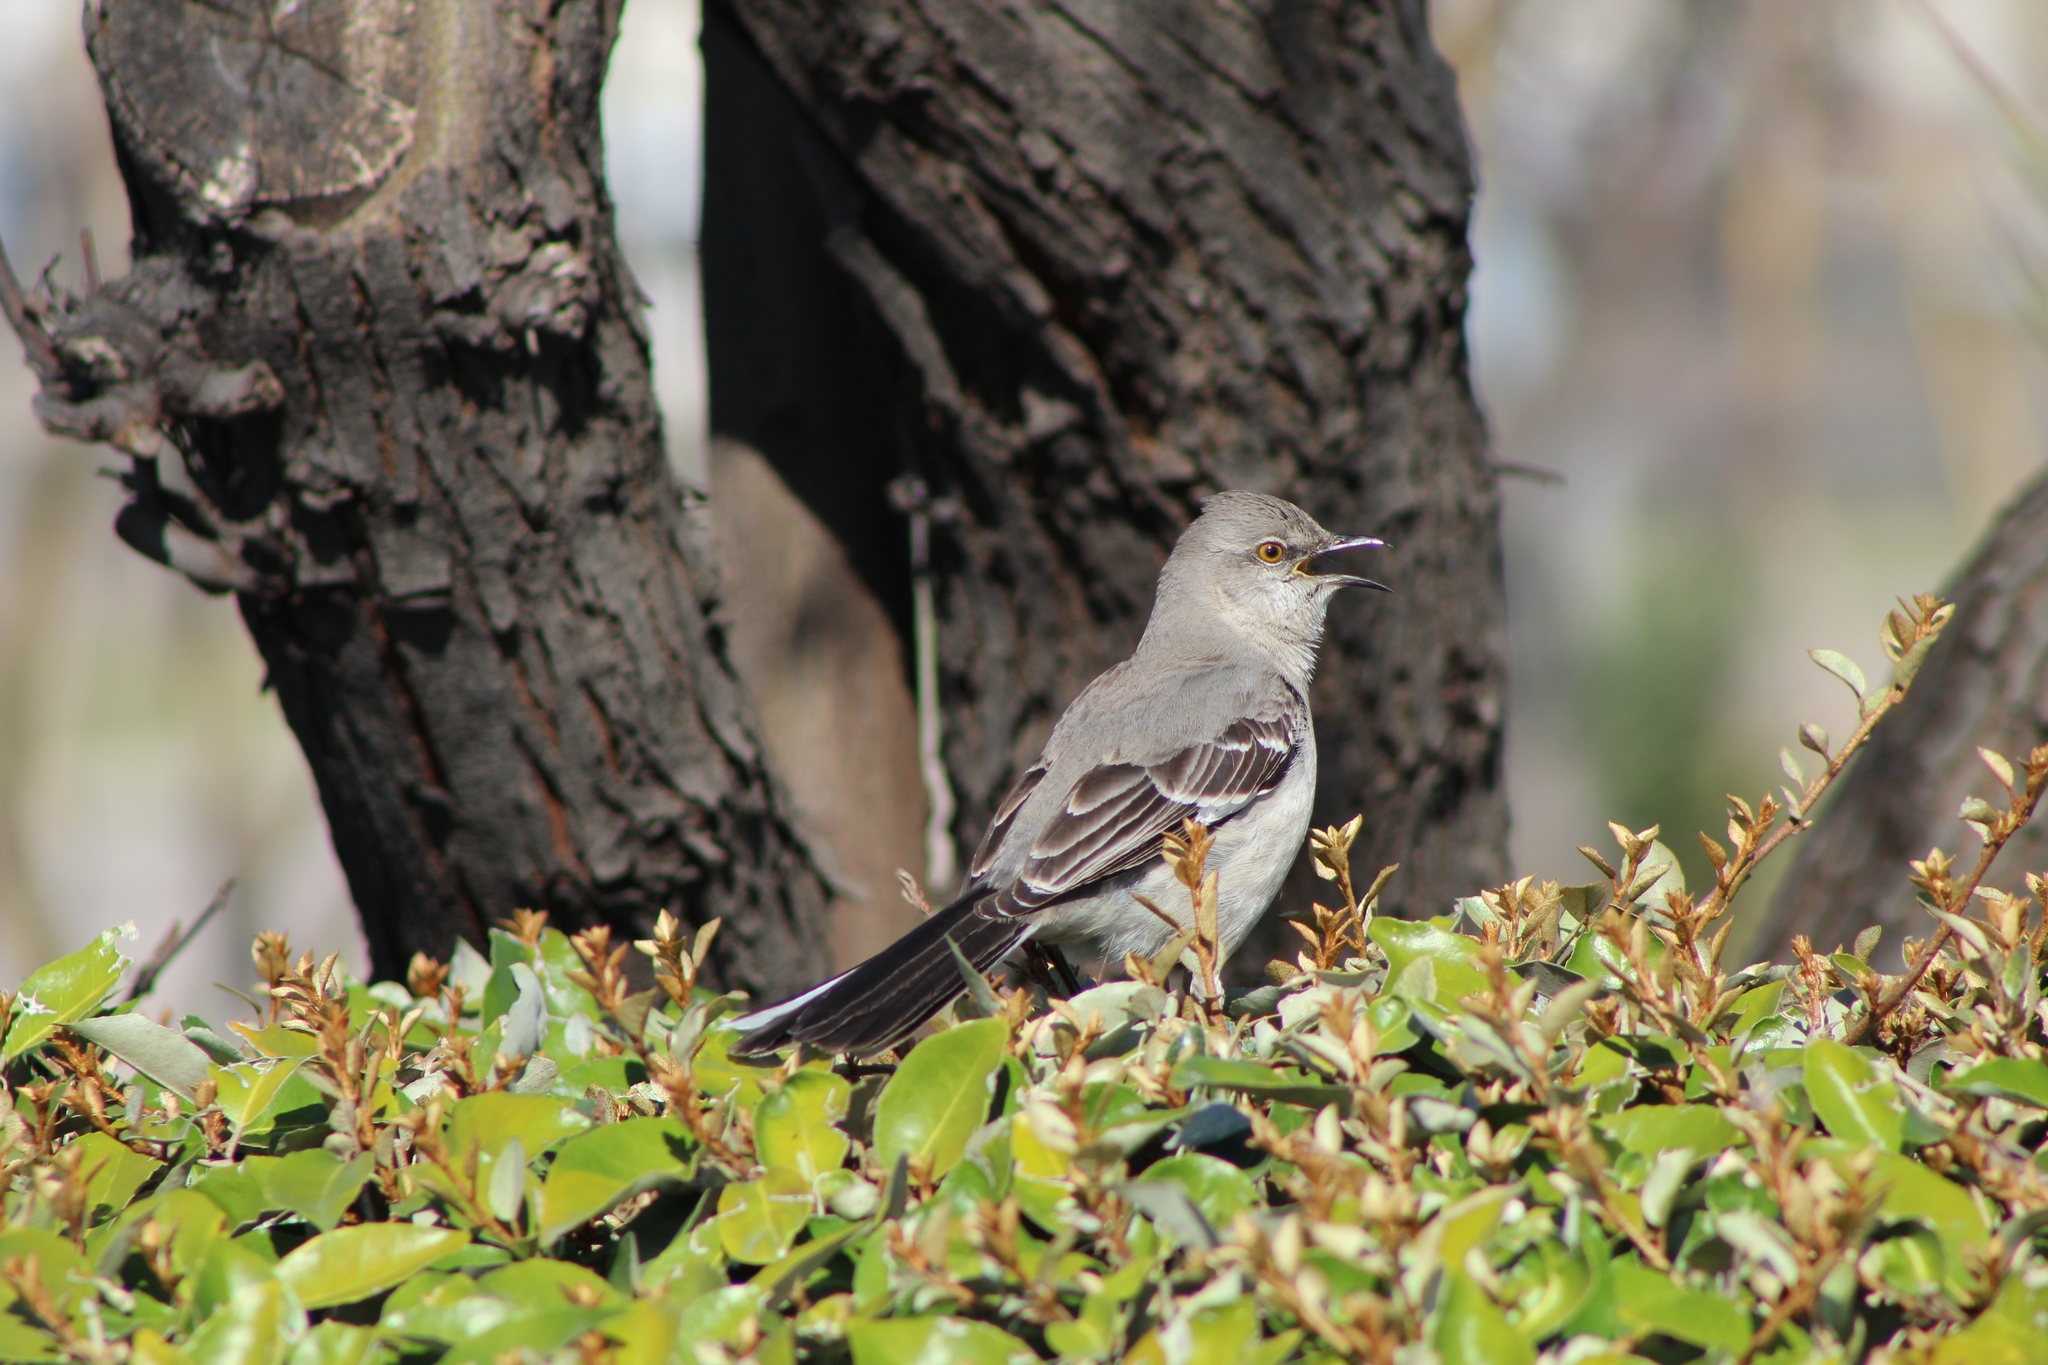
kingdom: Animalia
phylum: Chordata
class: Aves
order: Passeriformes
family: Mimidae
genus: Mimus
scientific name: Mimus polyglottos
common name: Northern mockingbird
